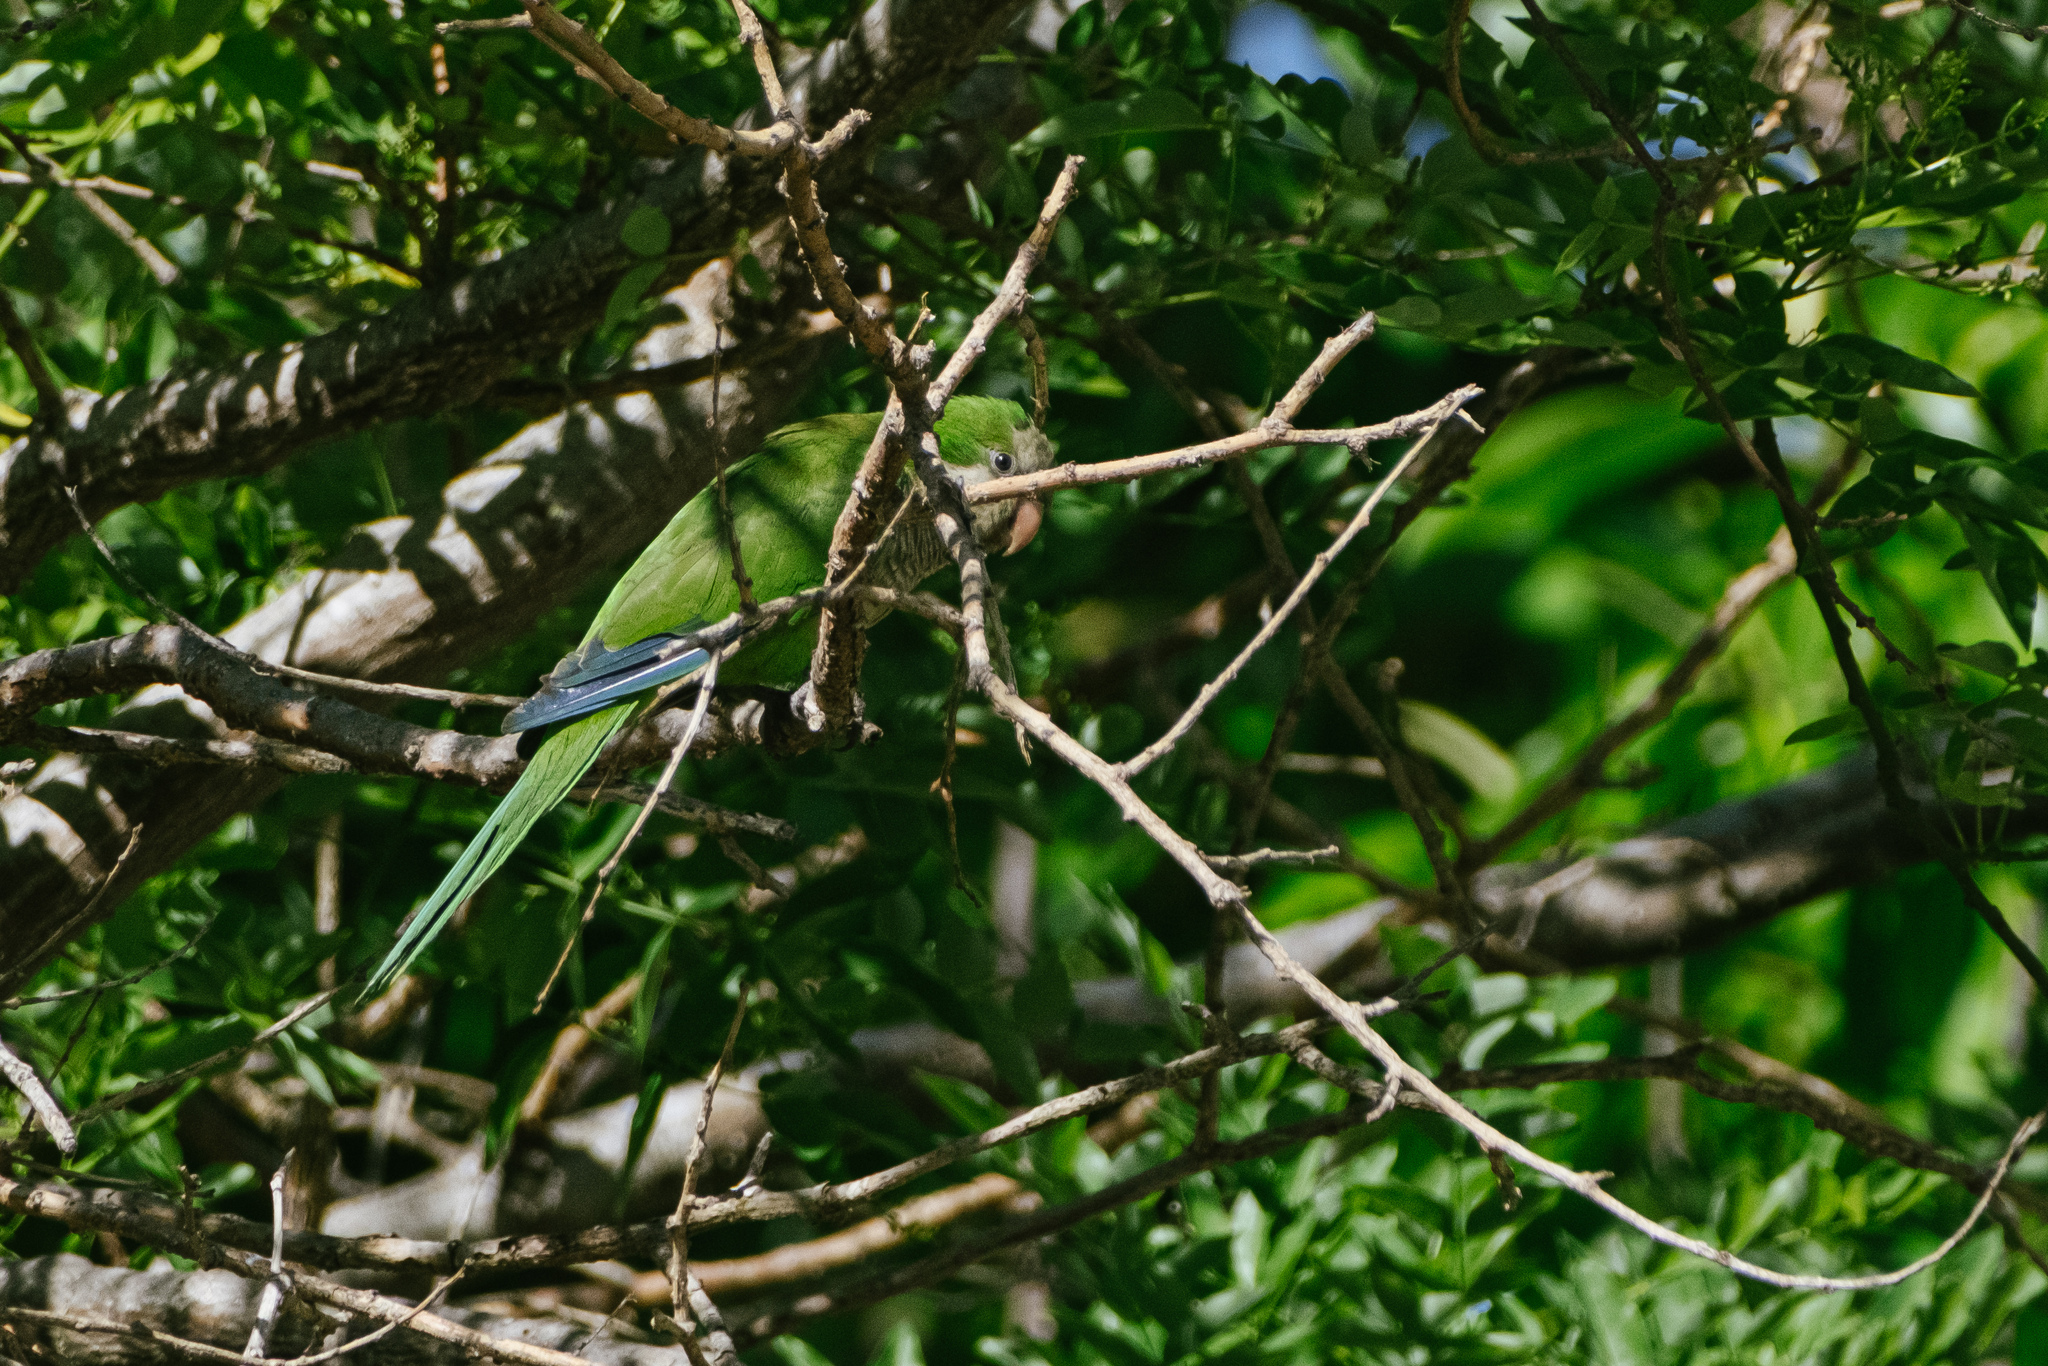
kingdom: Animalia
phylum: Chordata
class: Aves
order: Psittaciformes
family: Psittacidae
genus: Myiopsitta
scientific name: Myiopsitta monachus
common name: Monk parakeet
